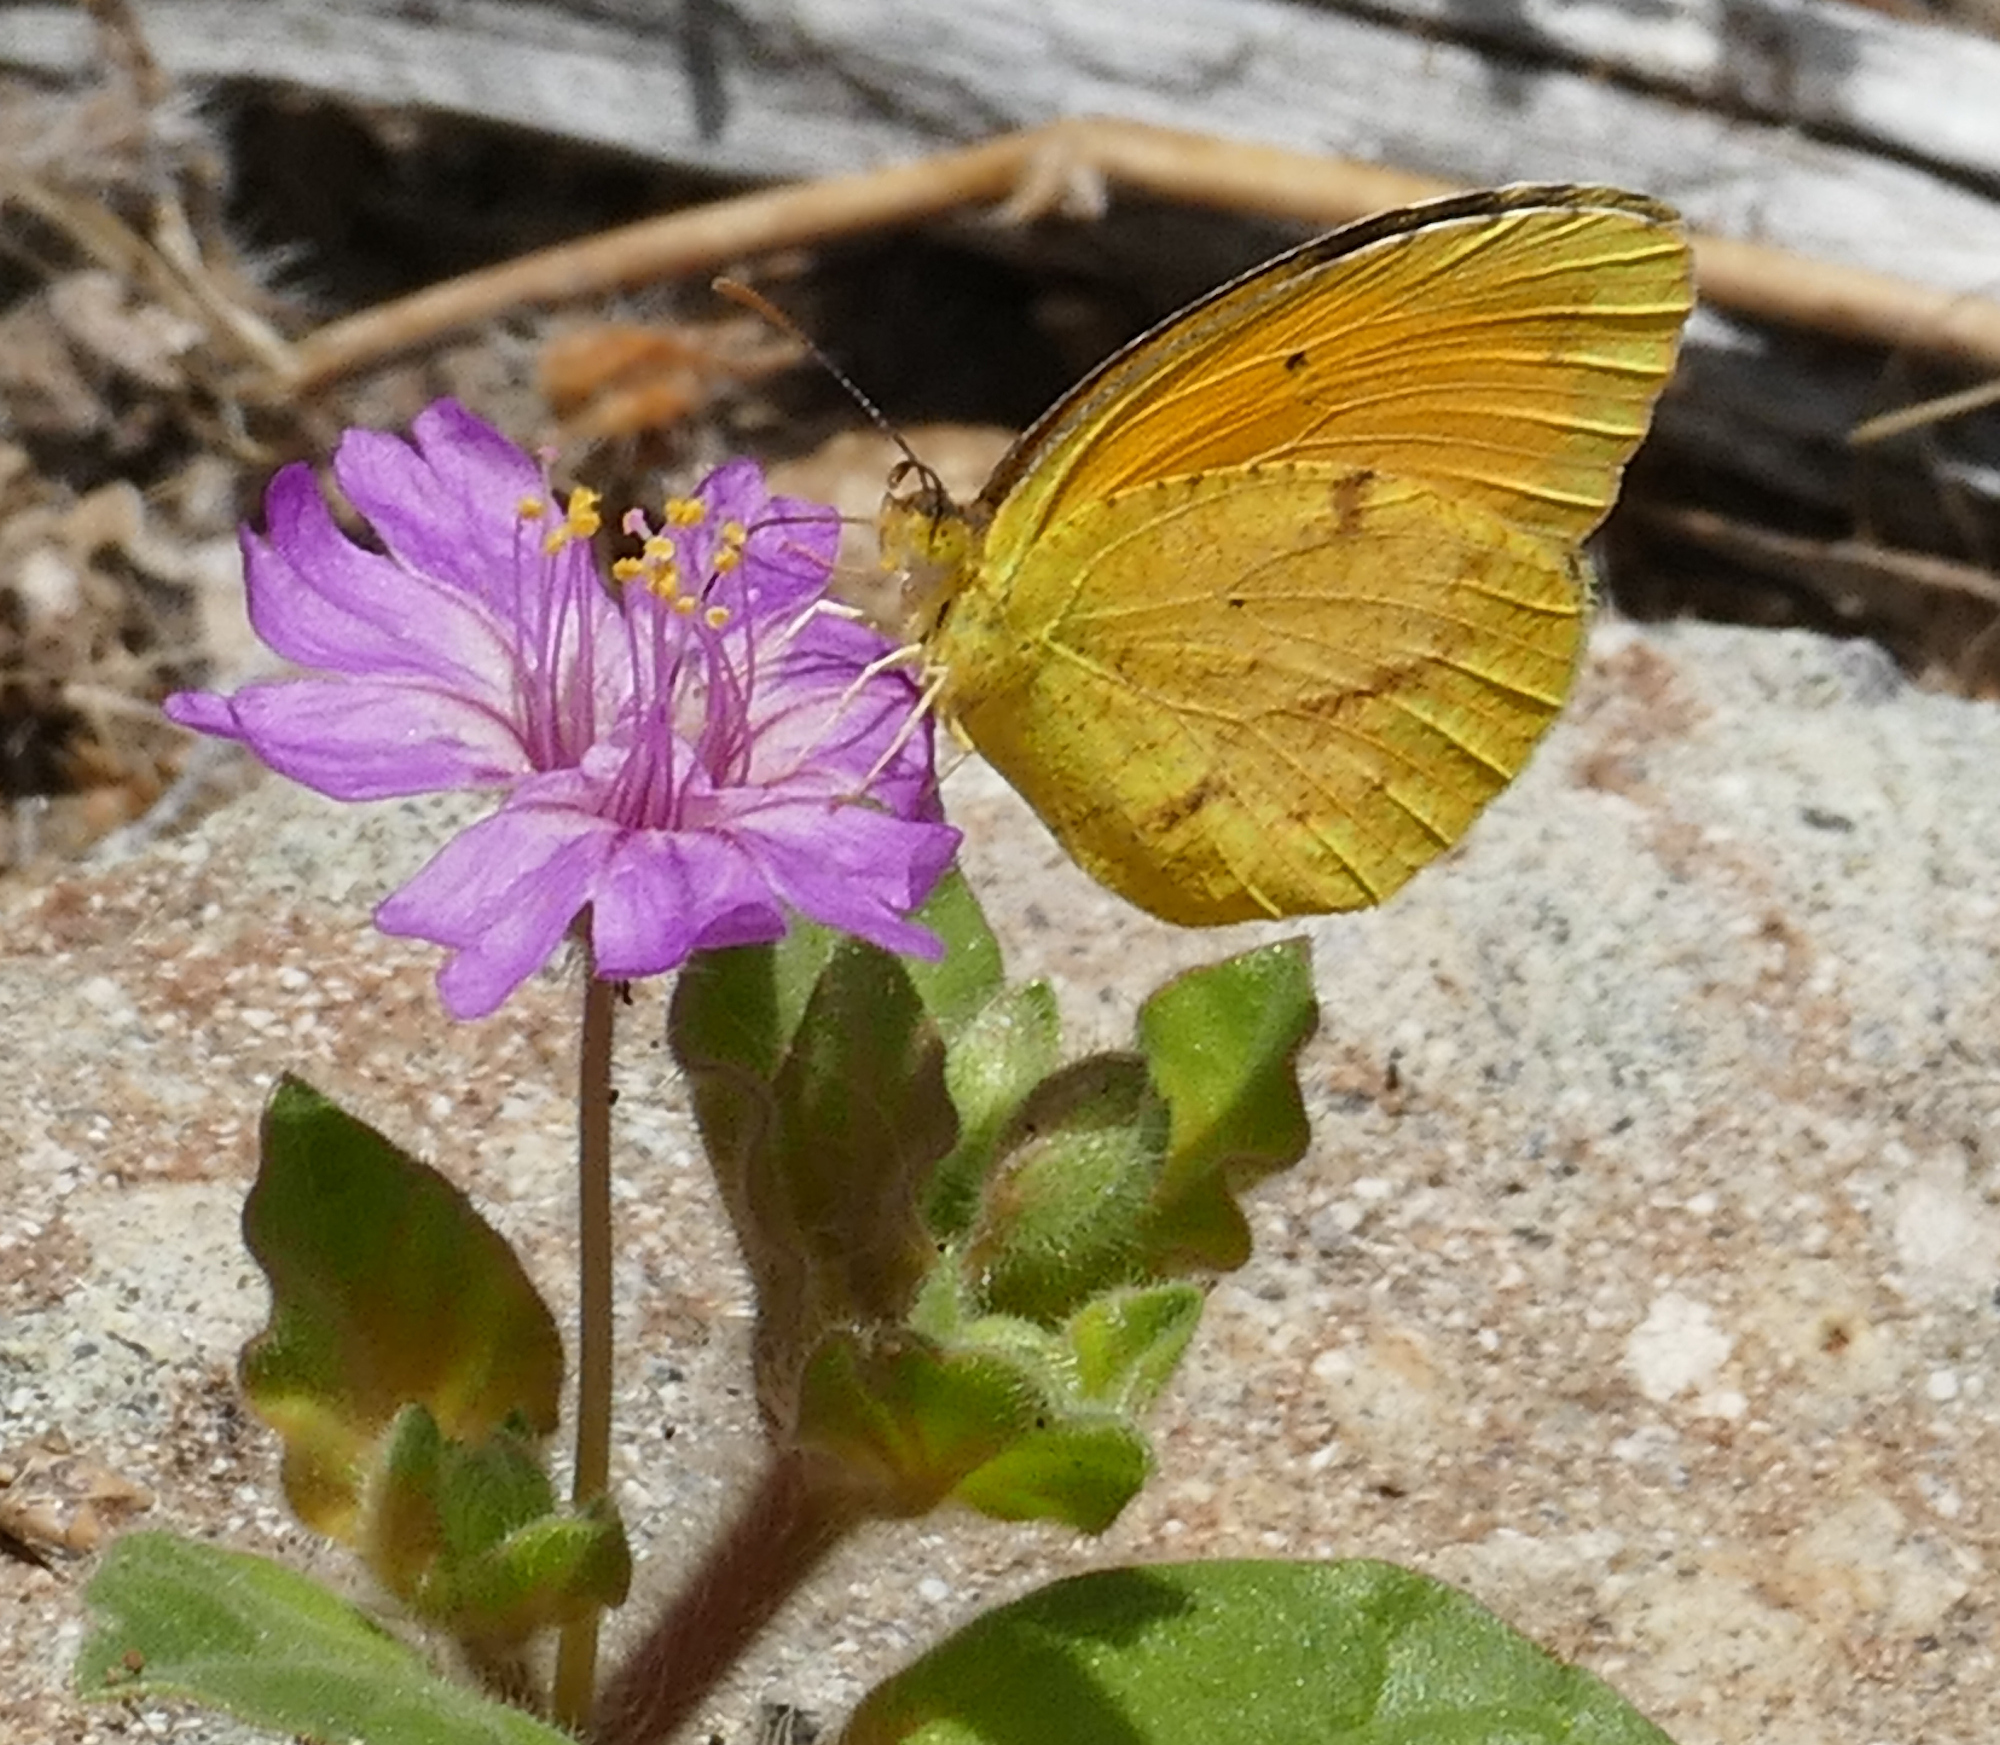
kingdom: Animalia
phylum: Arthropoda
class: Insecta
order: Lepidoptera
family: Pieridae
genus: Abaeis
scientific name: Abaeis nicippe
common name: Sleepy orange
